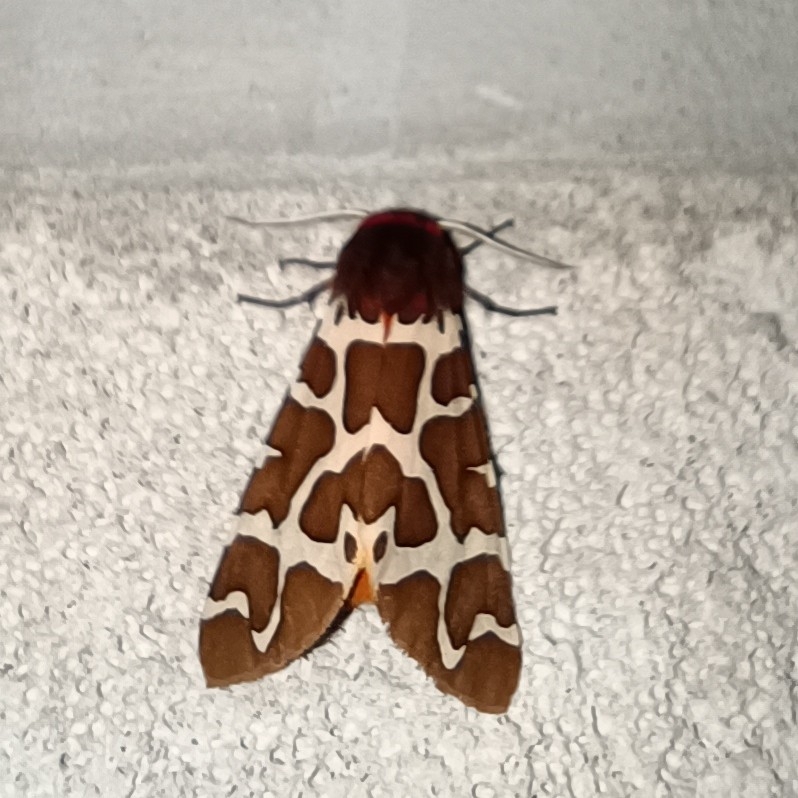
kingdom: Animalia
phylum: Arthropoda
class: Insecta
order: Lepidoptera
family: Erebidae
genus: Arctia
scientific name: Arctia caja
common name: Garden tiger
